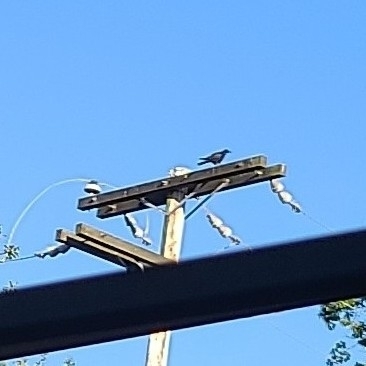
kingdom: Animalia
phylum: Chordata
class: Aves
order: Passeriformes
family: Corvidae
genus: Corvus
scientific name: Corvus brachyrhynchos
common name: American crow
